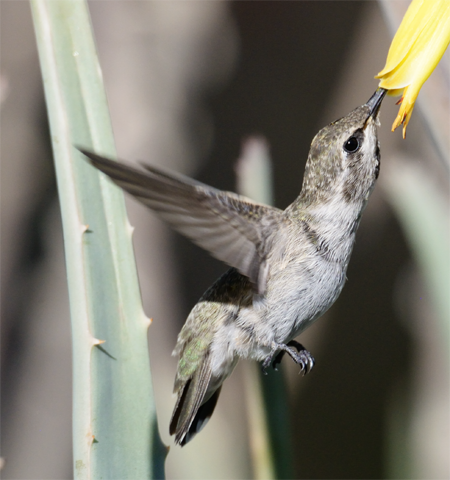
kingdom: Animalia
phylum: Chordata
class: Aves
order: Apodiformes
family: Trochilidae
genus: Calypte
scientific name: Calypte costae
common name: Costa's hummingbird
